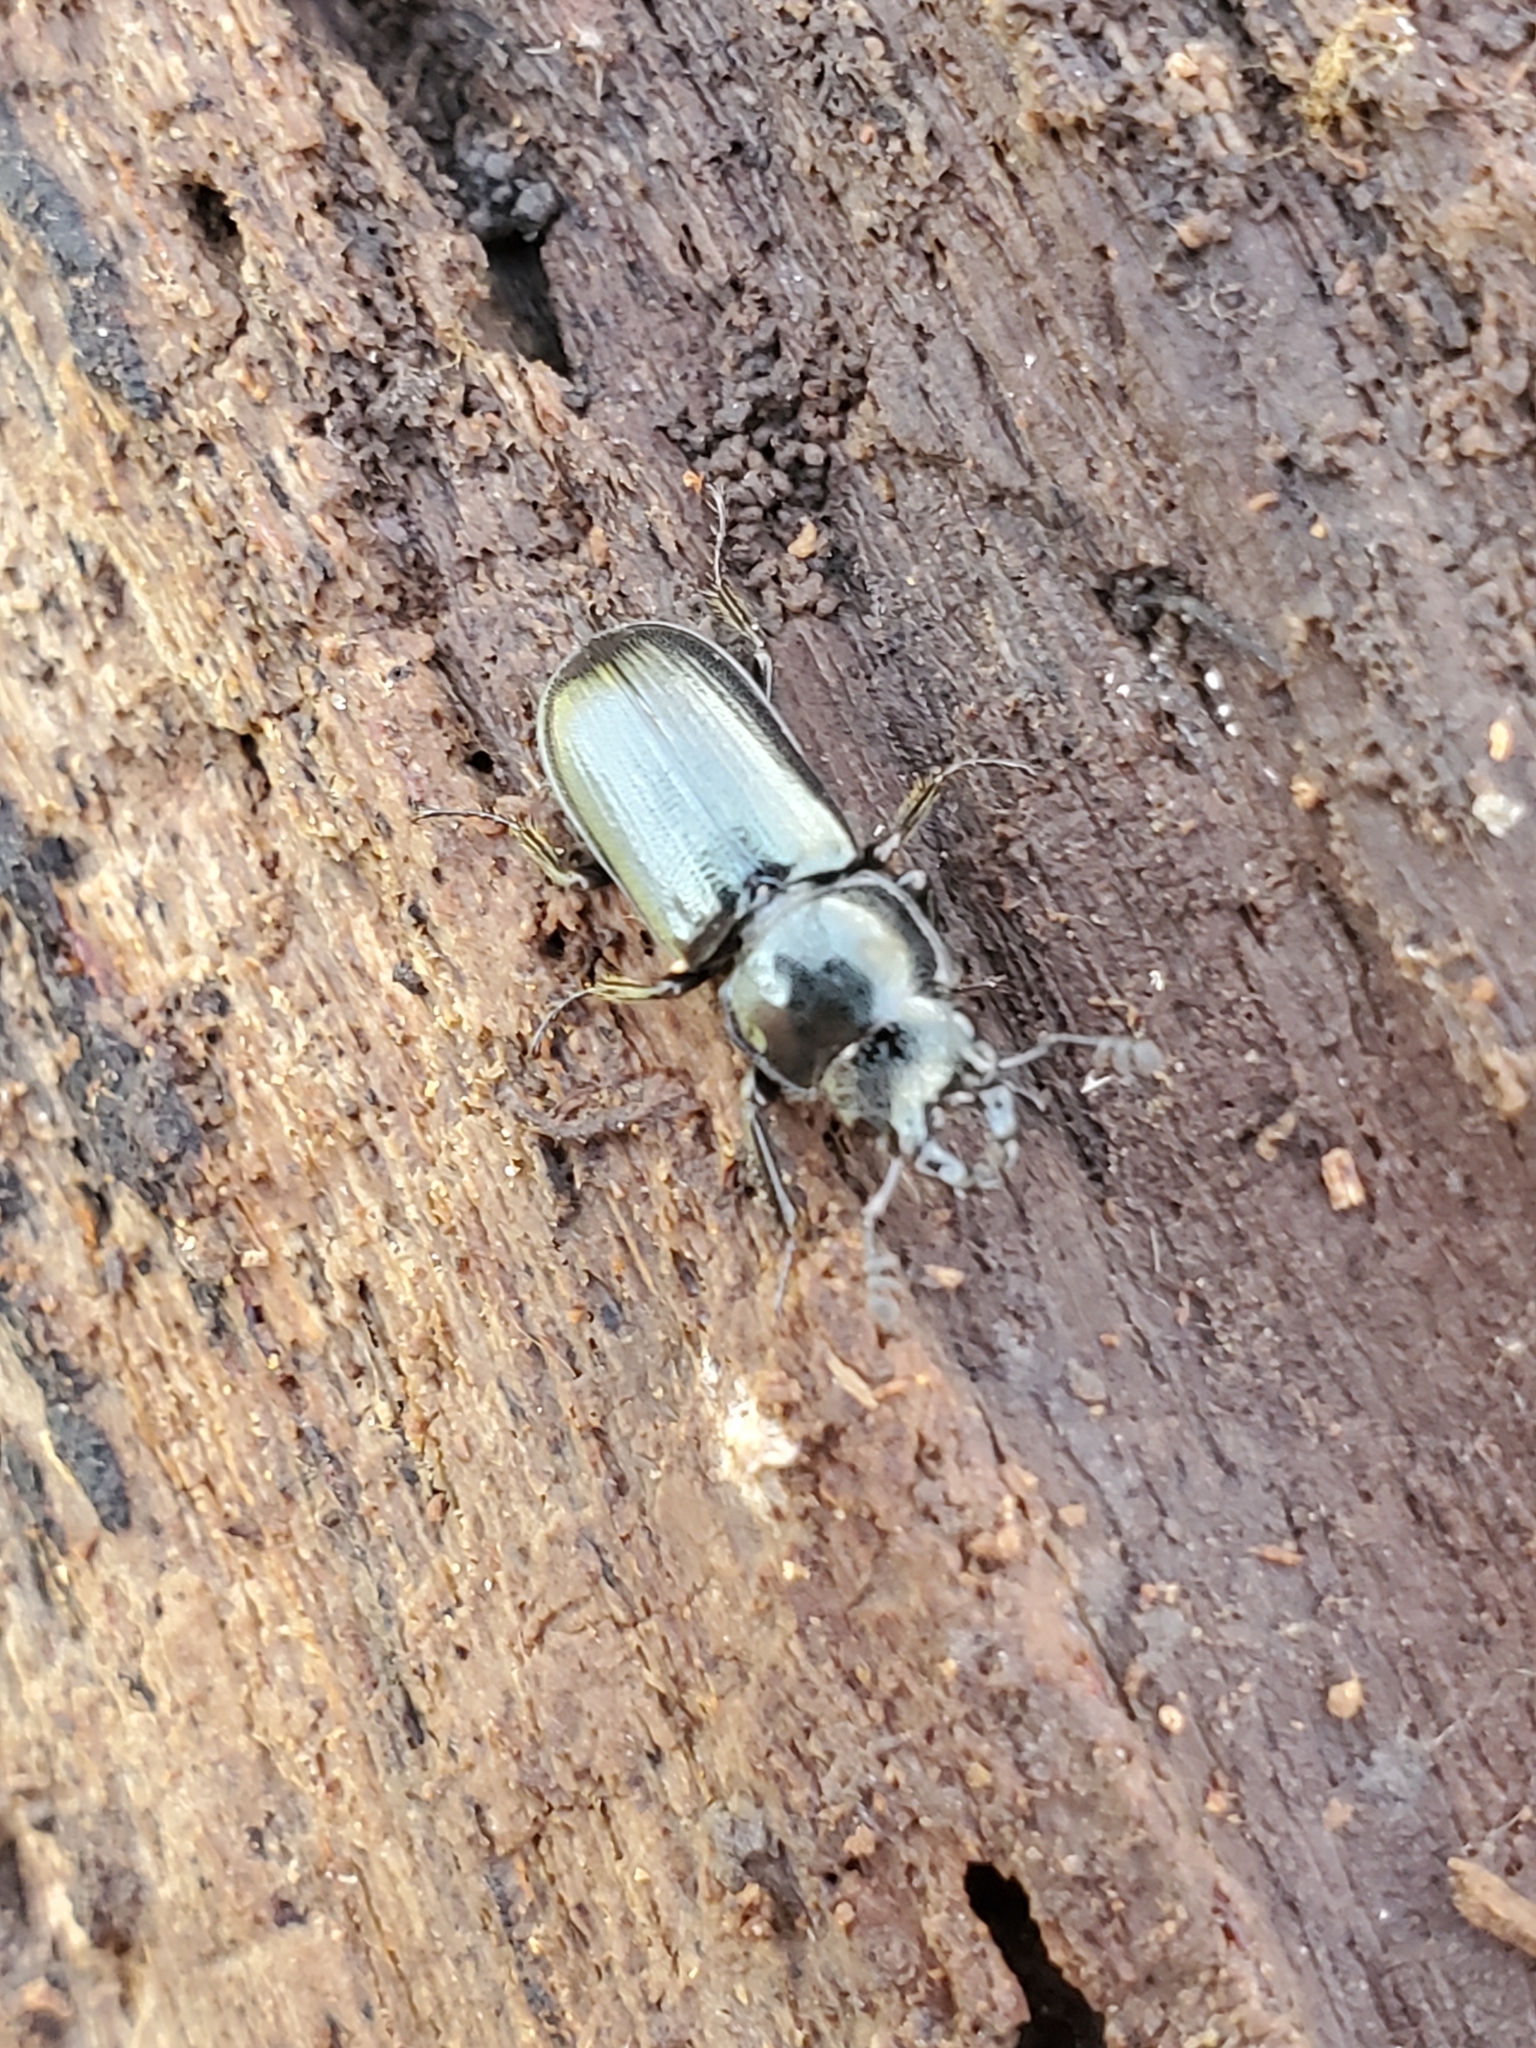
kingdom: Animalia
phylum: Arthropoda
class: Insecta
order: Coleoptera
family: Lucanidae
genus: Platycerus
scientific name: Platycerus quercus
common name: Oak stag beetle
